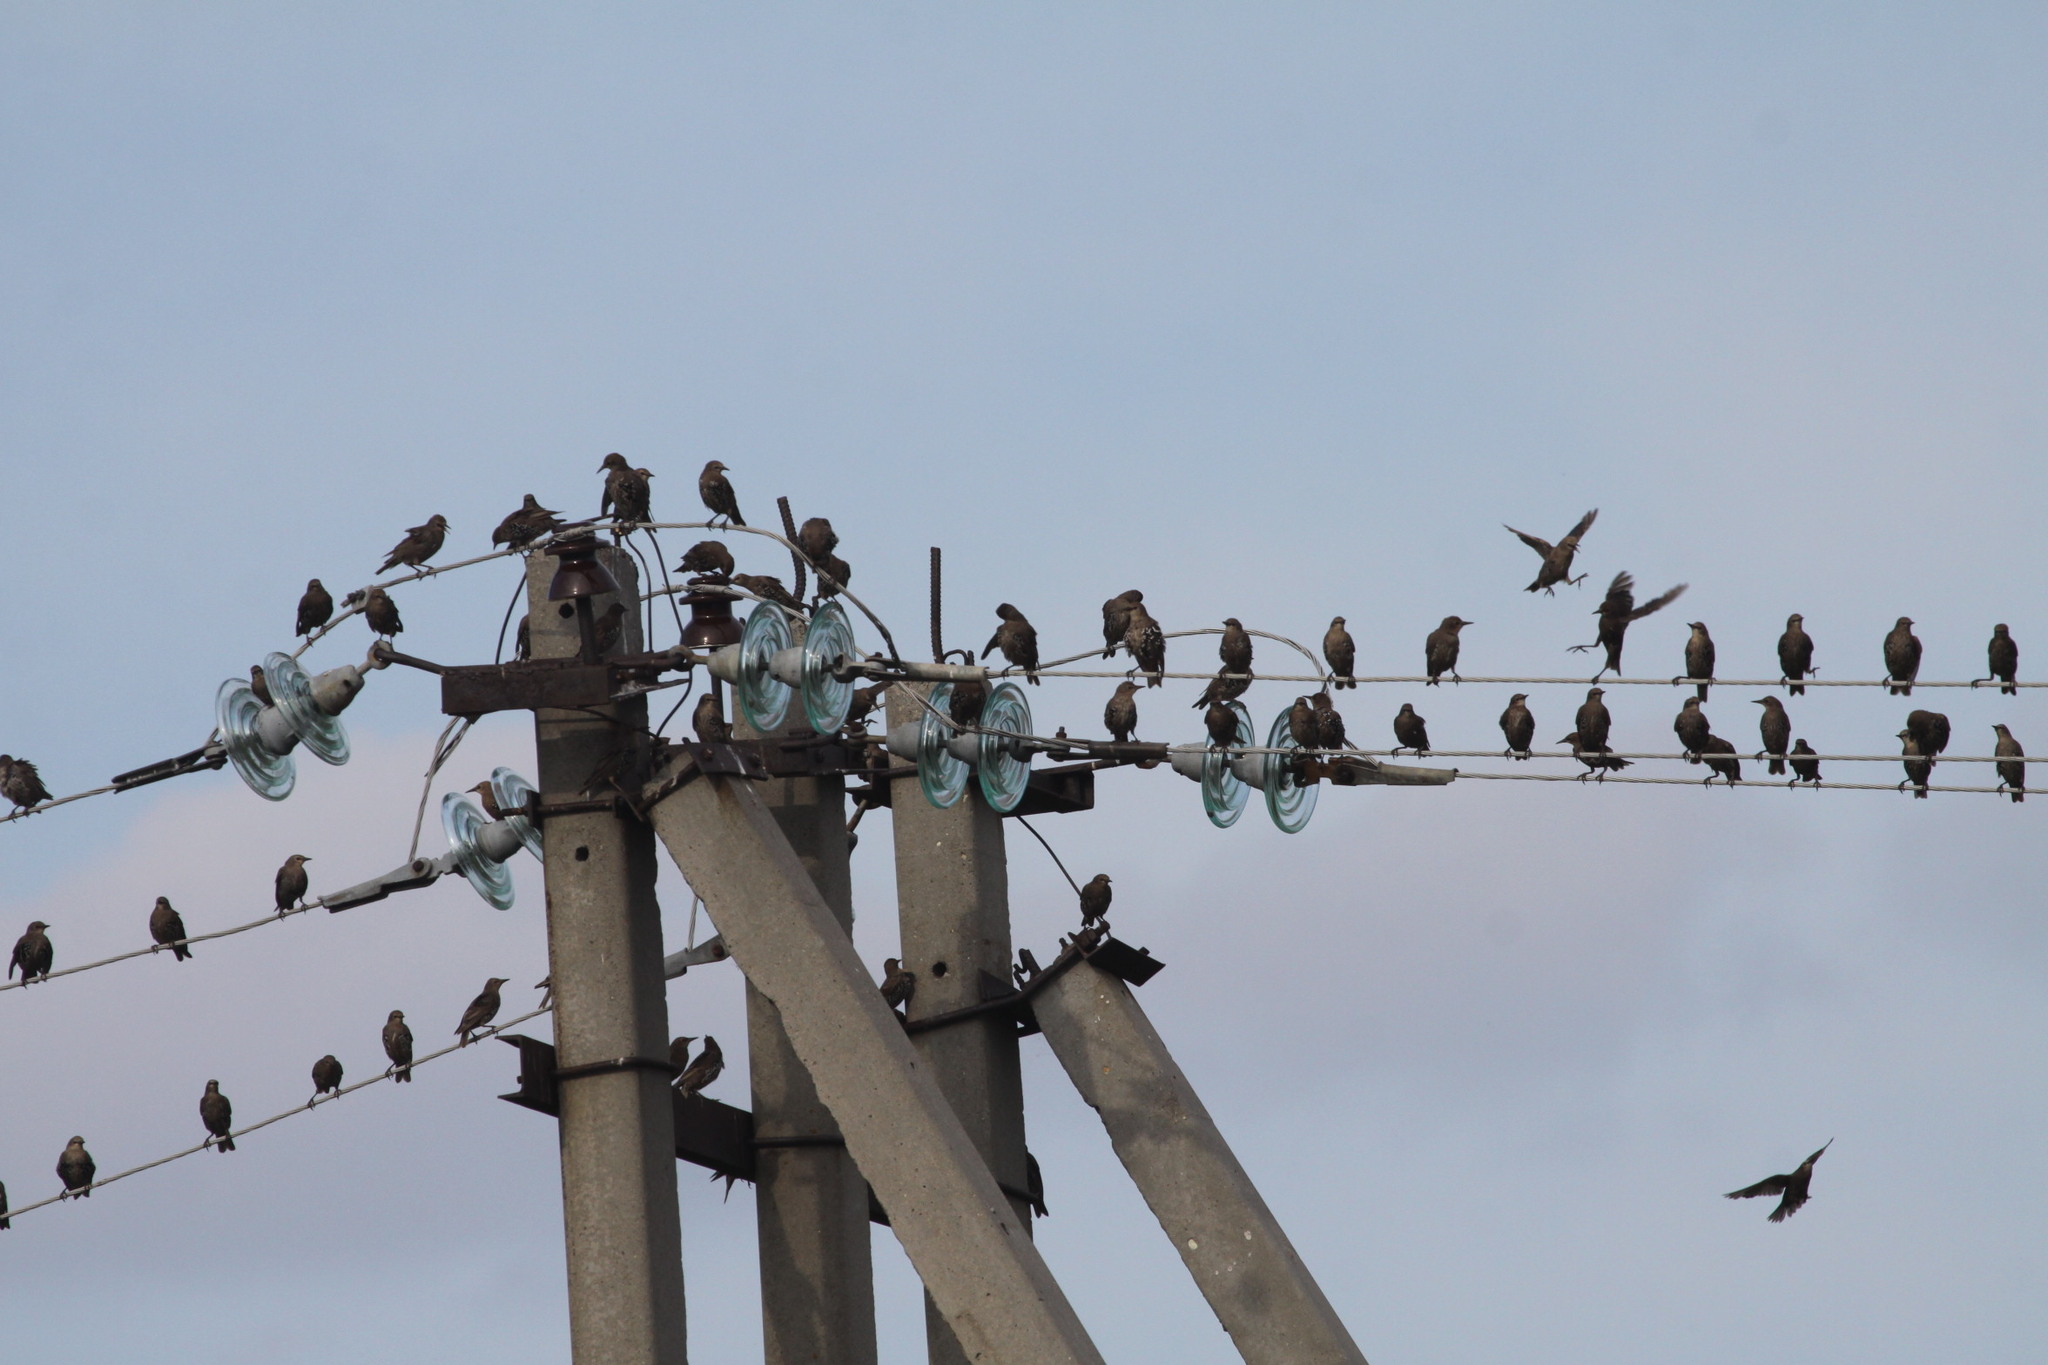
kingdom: Animalia
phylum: Chordata
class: Aves
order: Passeriformes
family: Sturnidae
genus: Sturnus
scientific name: Sturnus vulgaris
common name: Common starling
